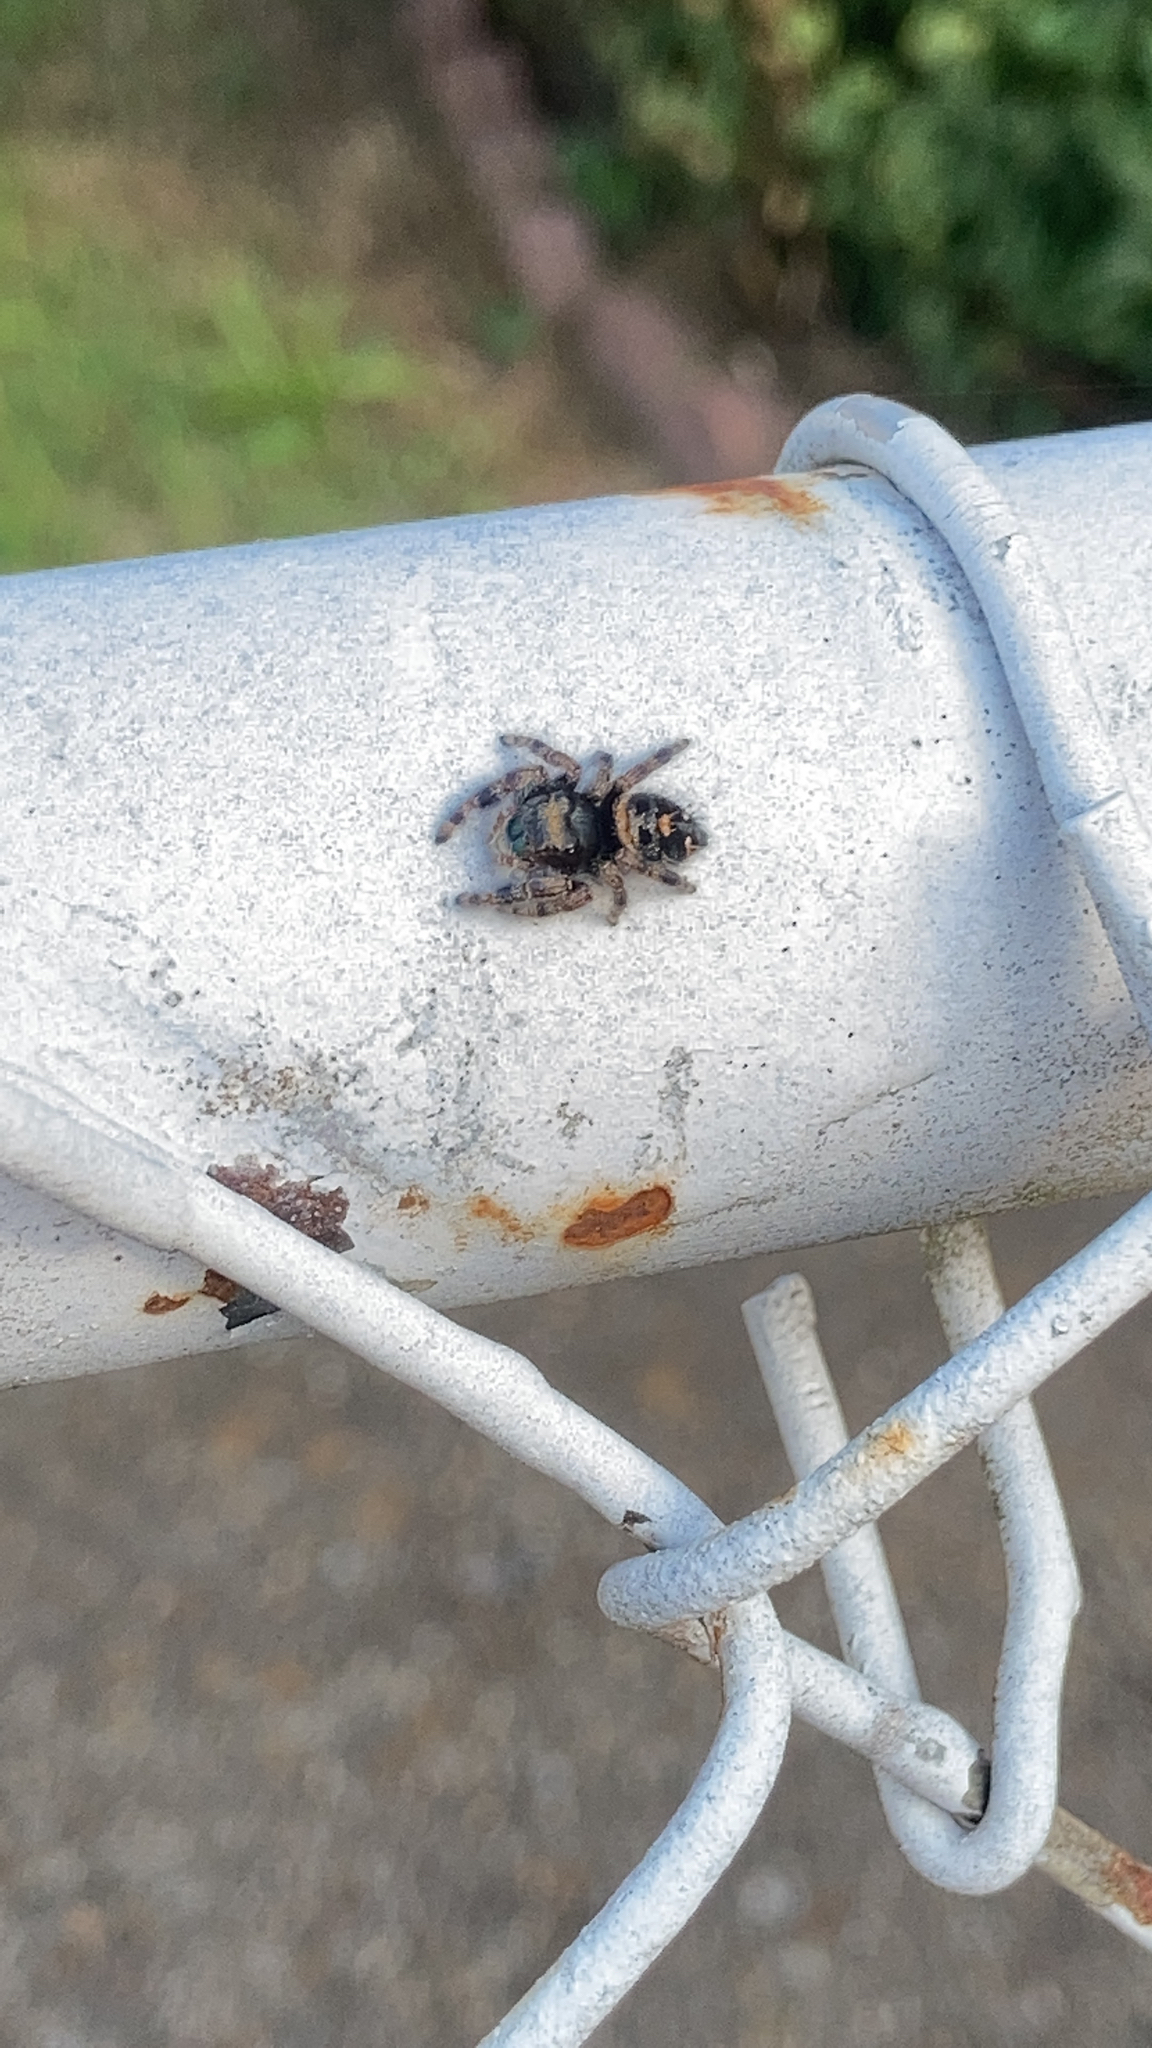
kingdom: Animalia
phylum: Arthropoda
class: Arachnida
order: Araneae
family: Salticidae
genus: Phidippus
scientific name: Phidippus audax
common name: Bold jumper
